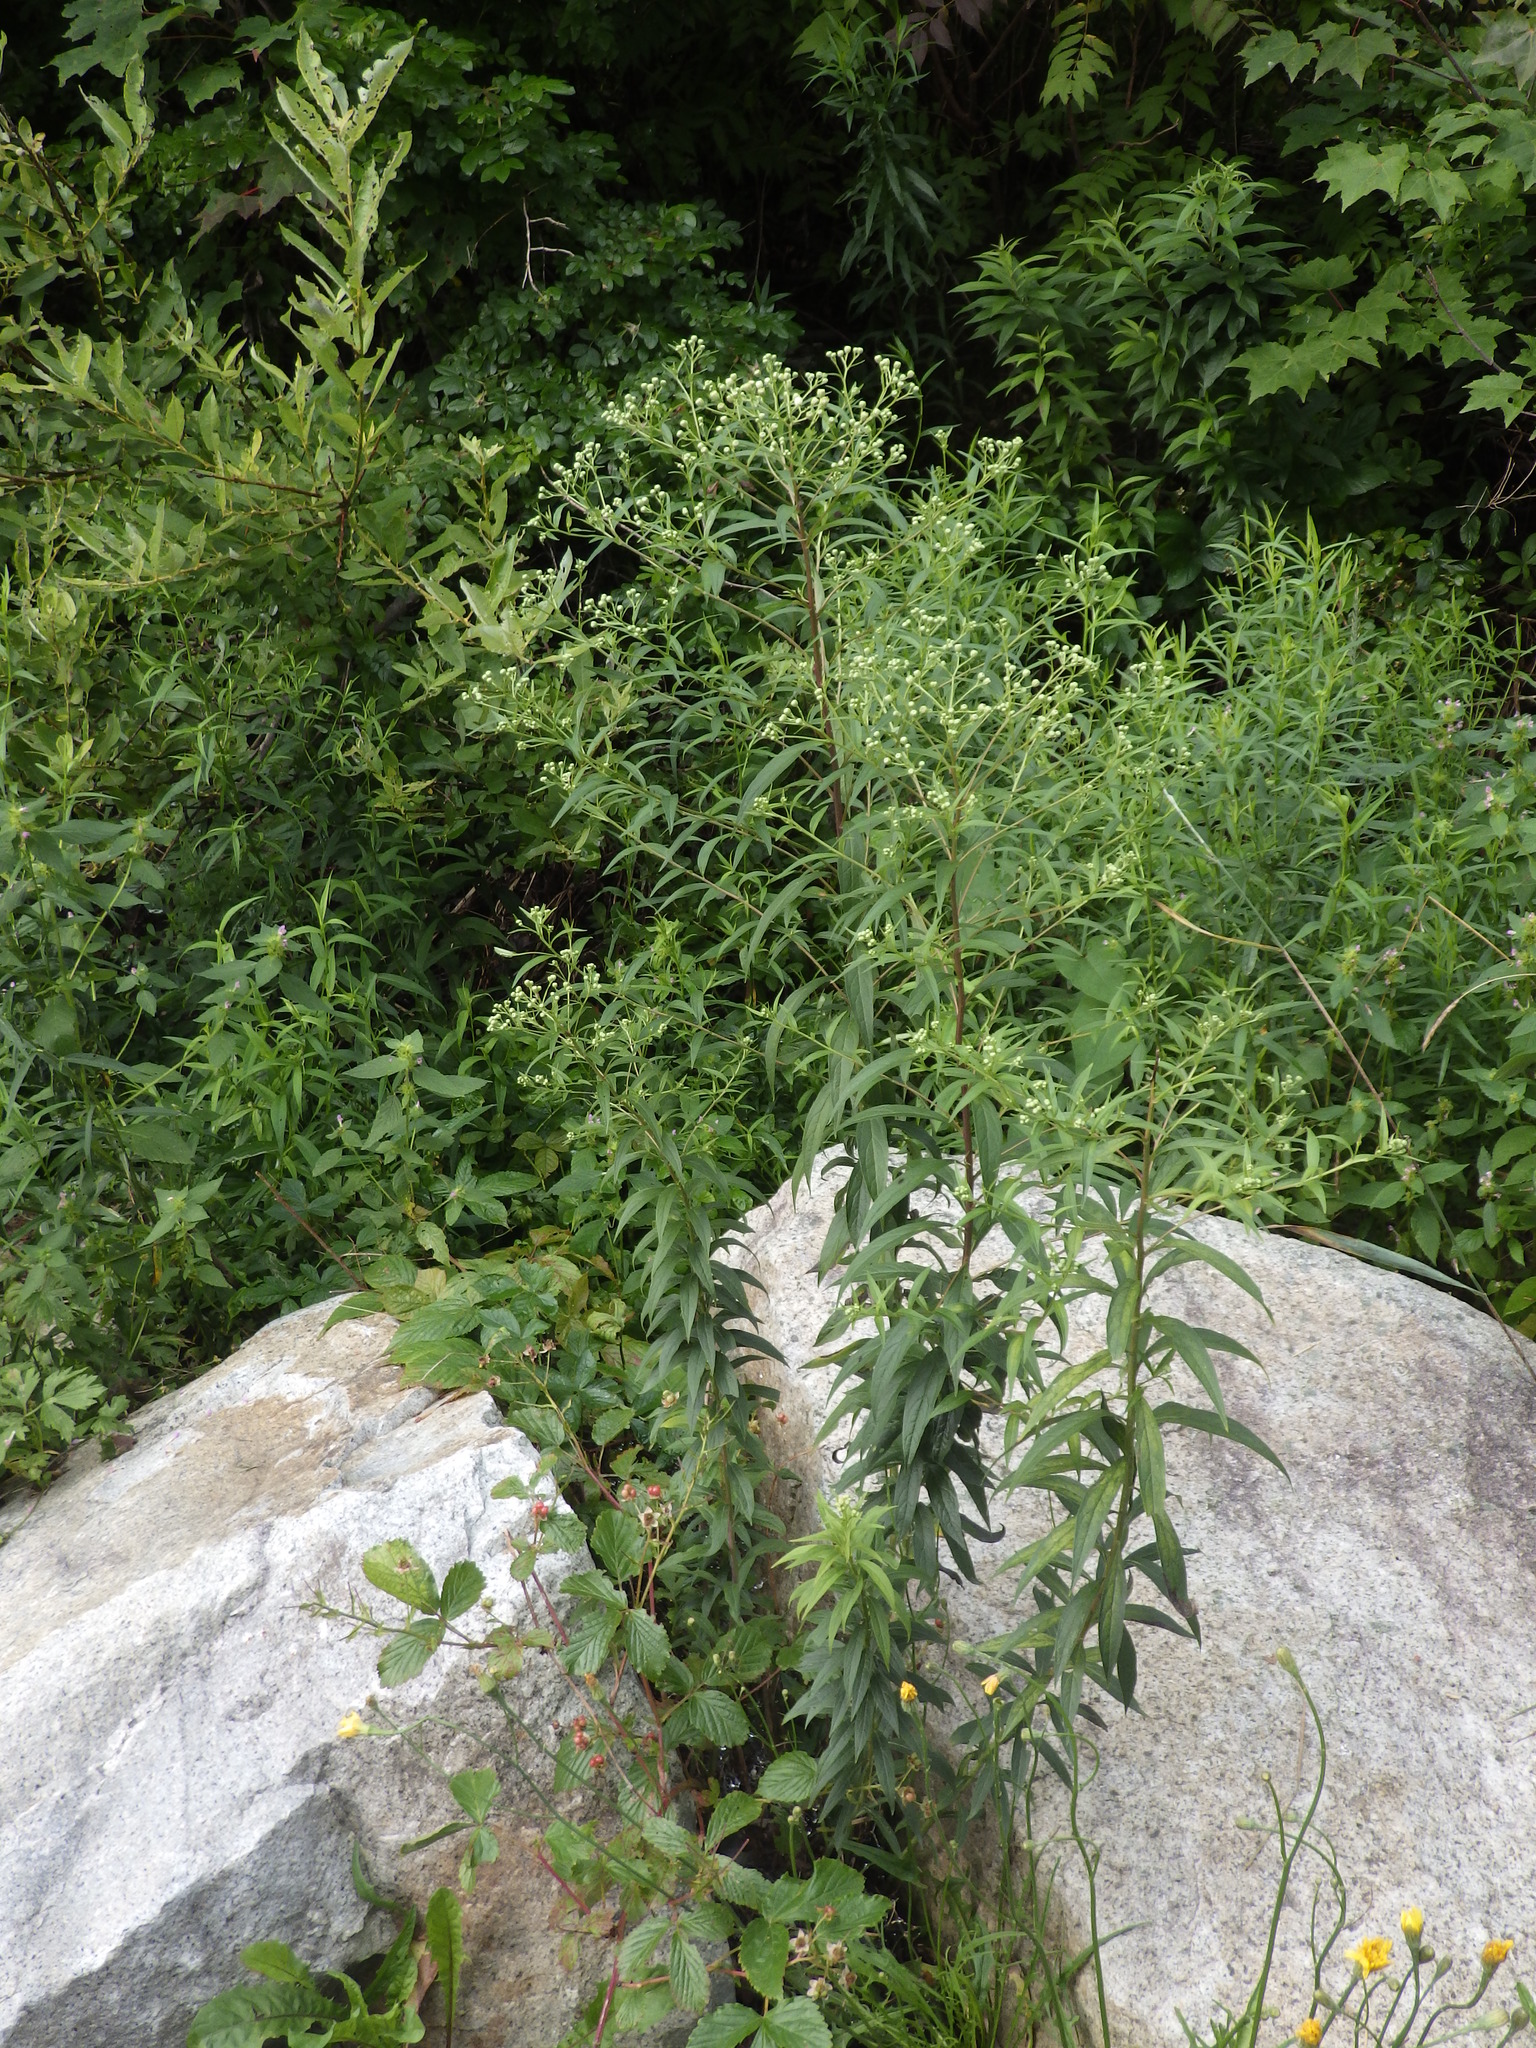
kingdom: Plantae
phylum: Tracheophyta
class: Magnoliopsida
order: Asterales
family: Asteraceae
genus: Doellingeria
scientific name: Doellingeria umbellata
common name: Flat-top white aster
